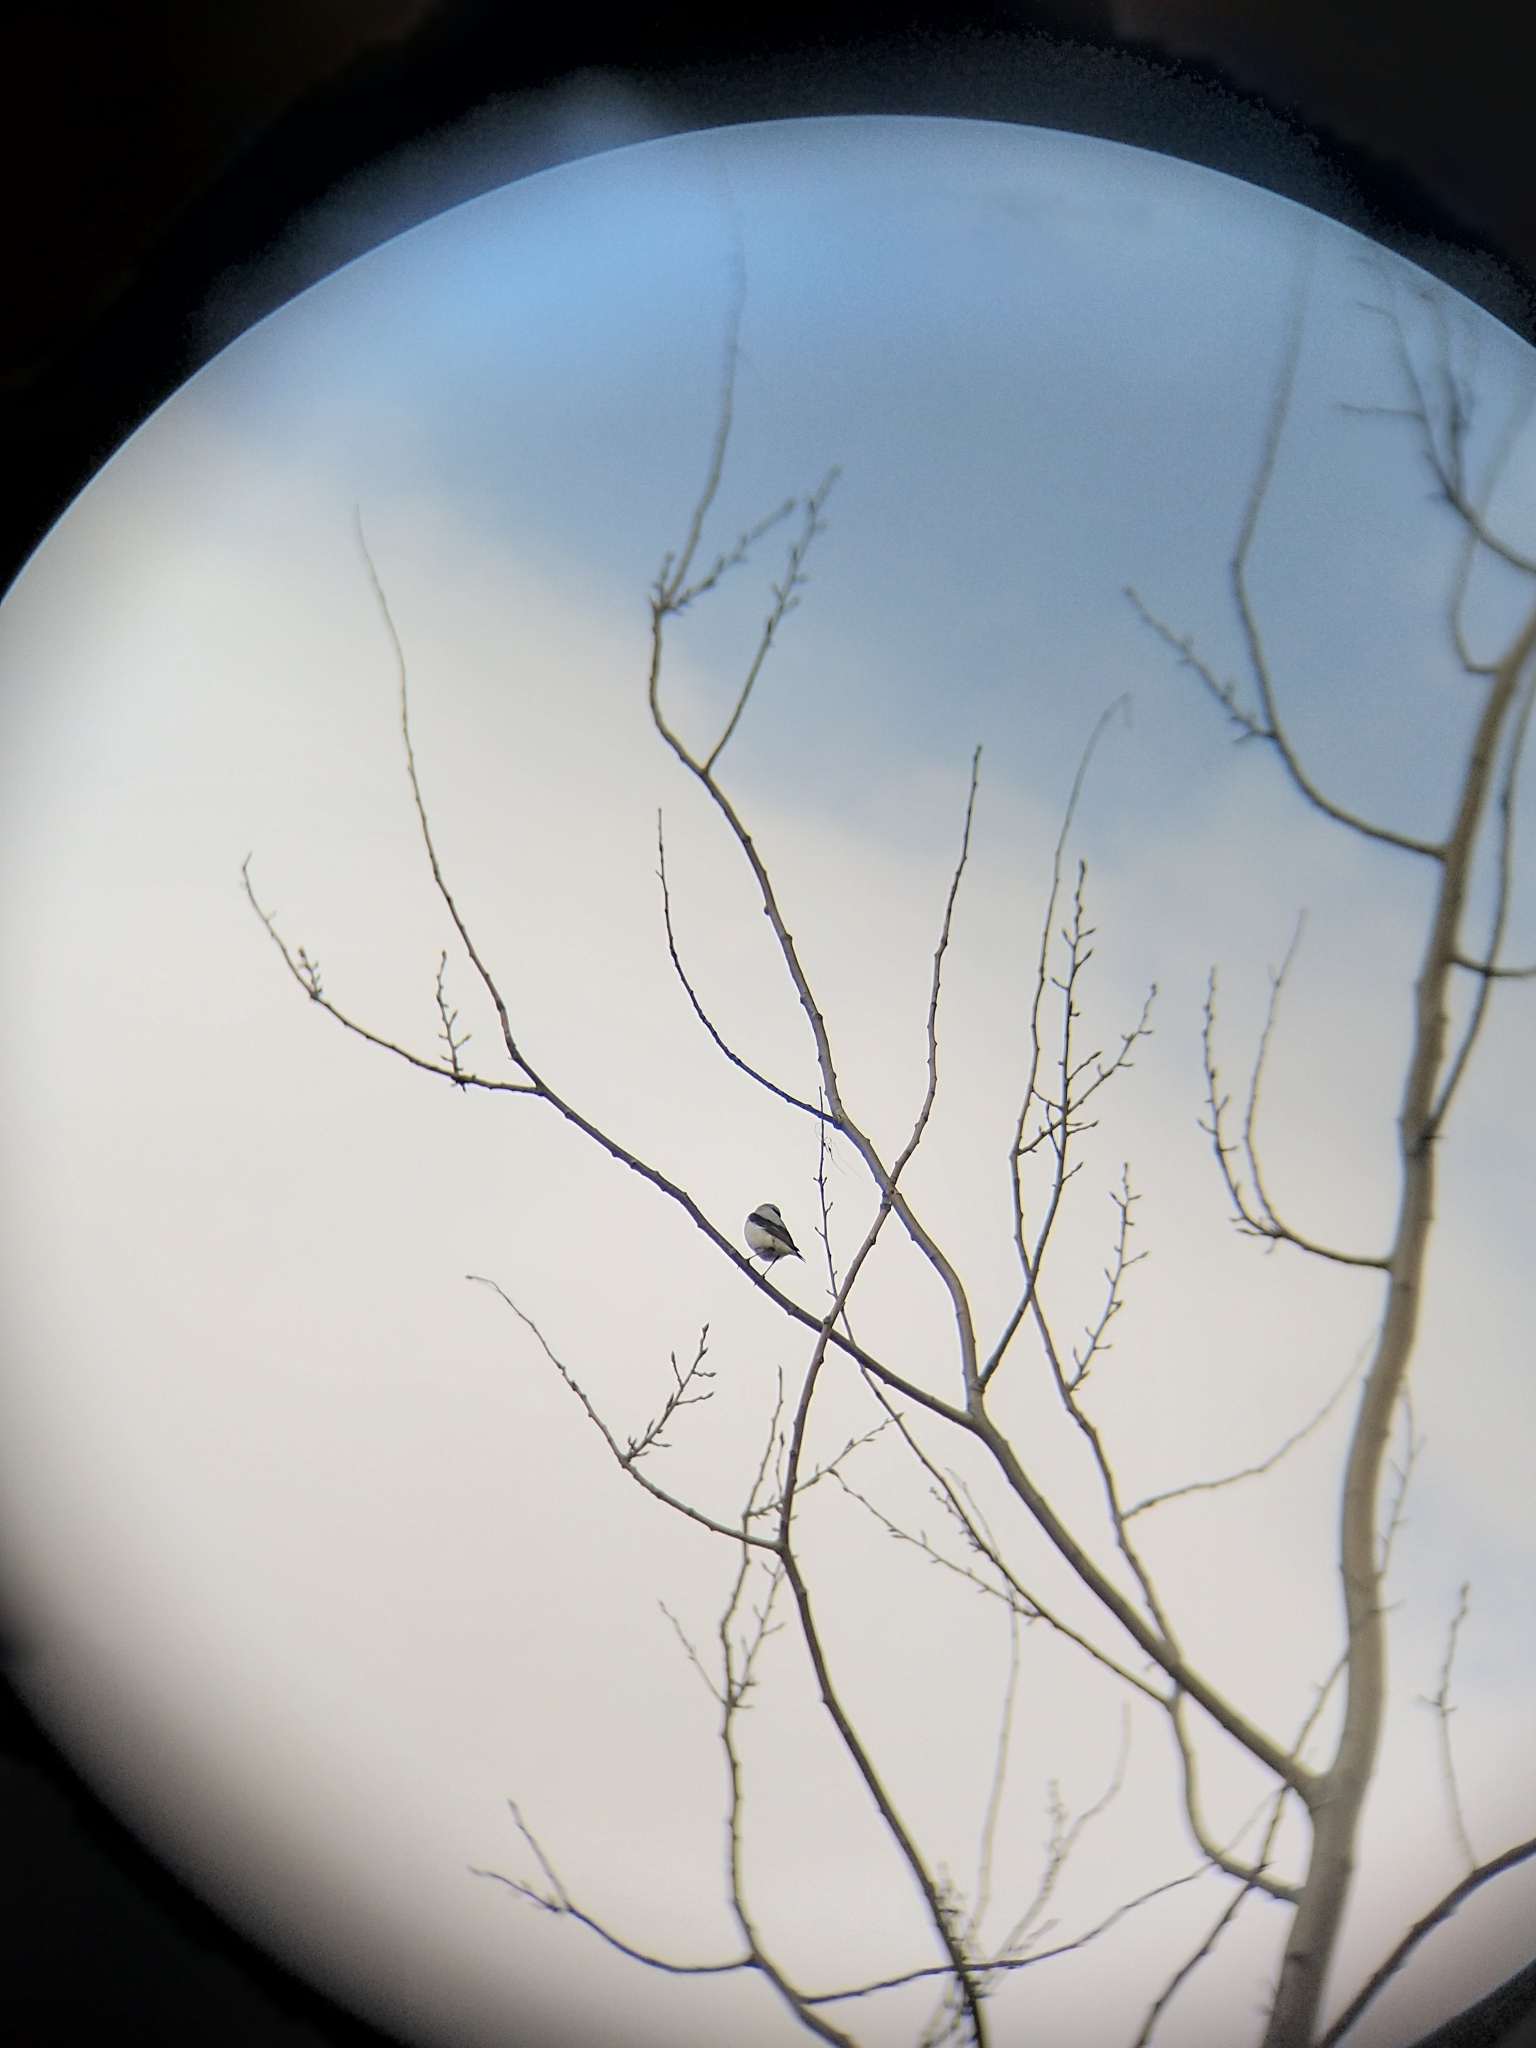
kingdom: Animalia
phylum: Chordata
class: Aves
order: Passeriformes
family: Muscicapidae
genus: Oenanthe
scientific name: Oenanthe oenanthe
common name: Northern wheatear
